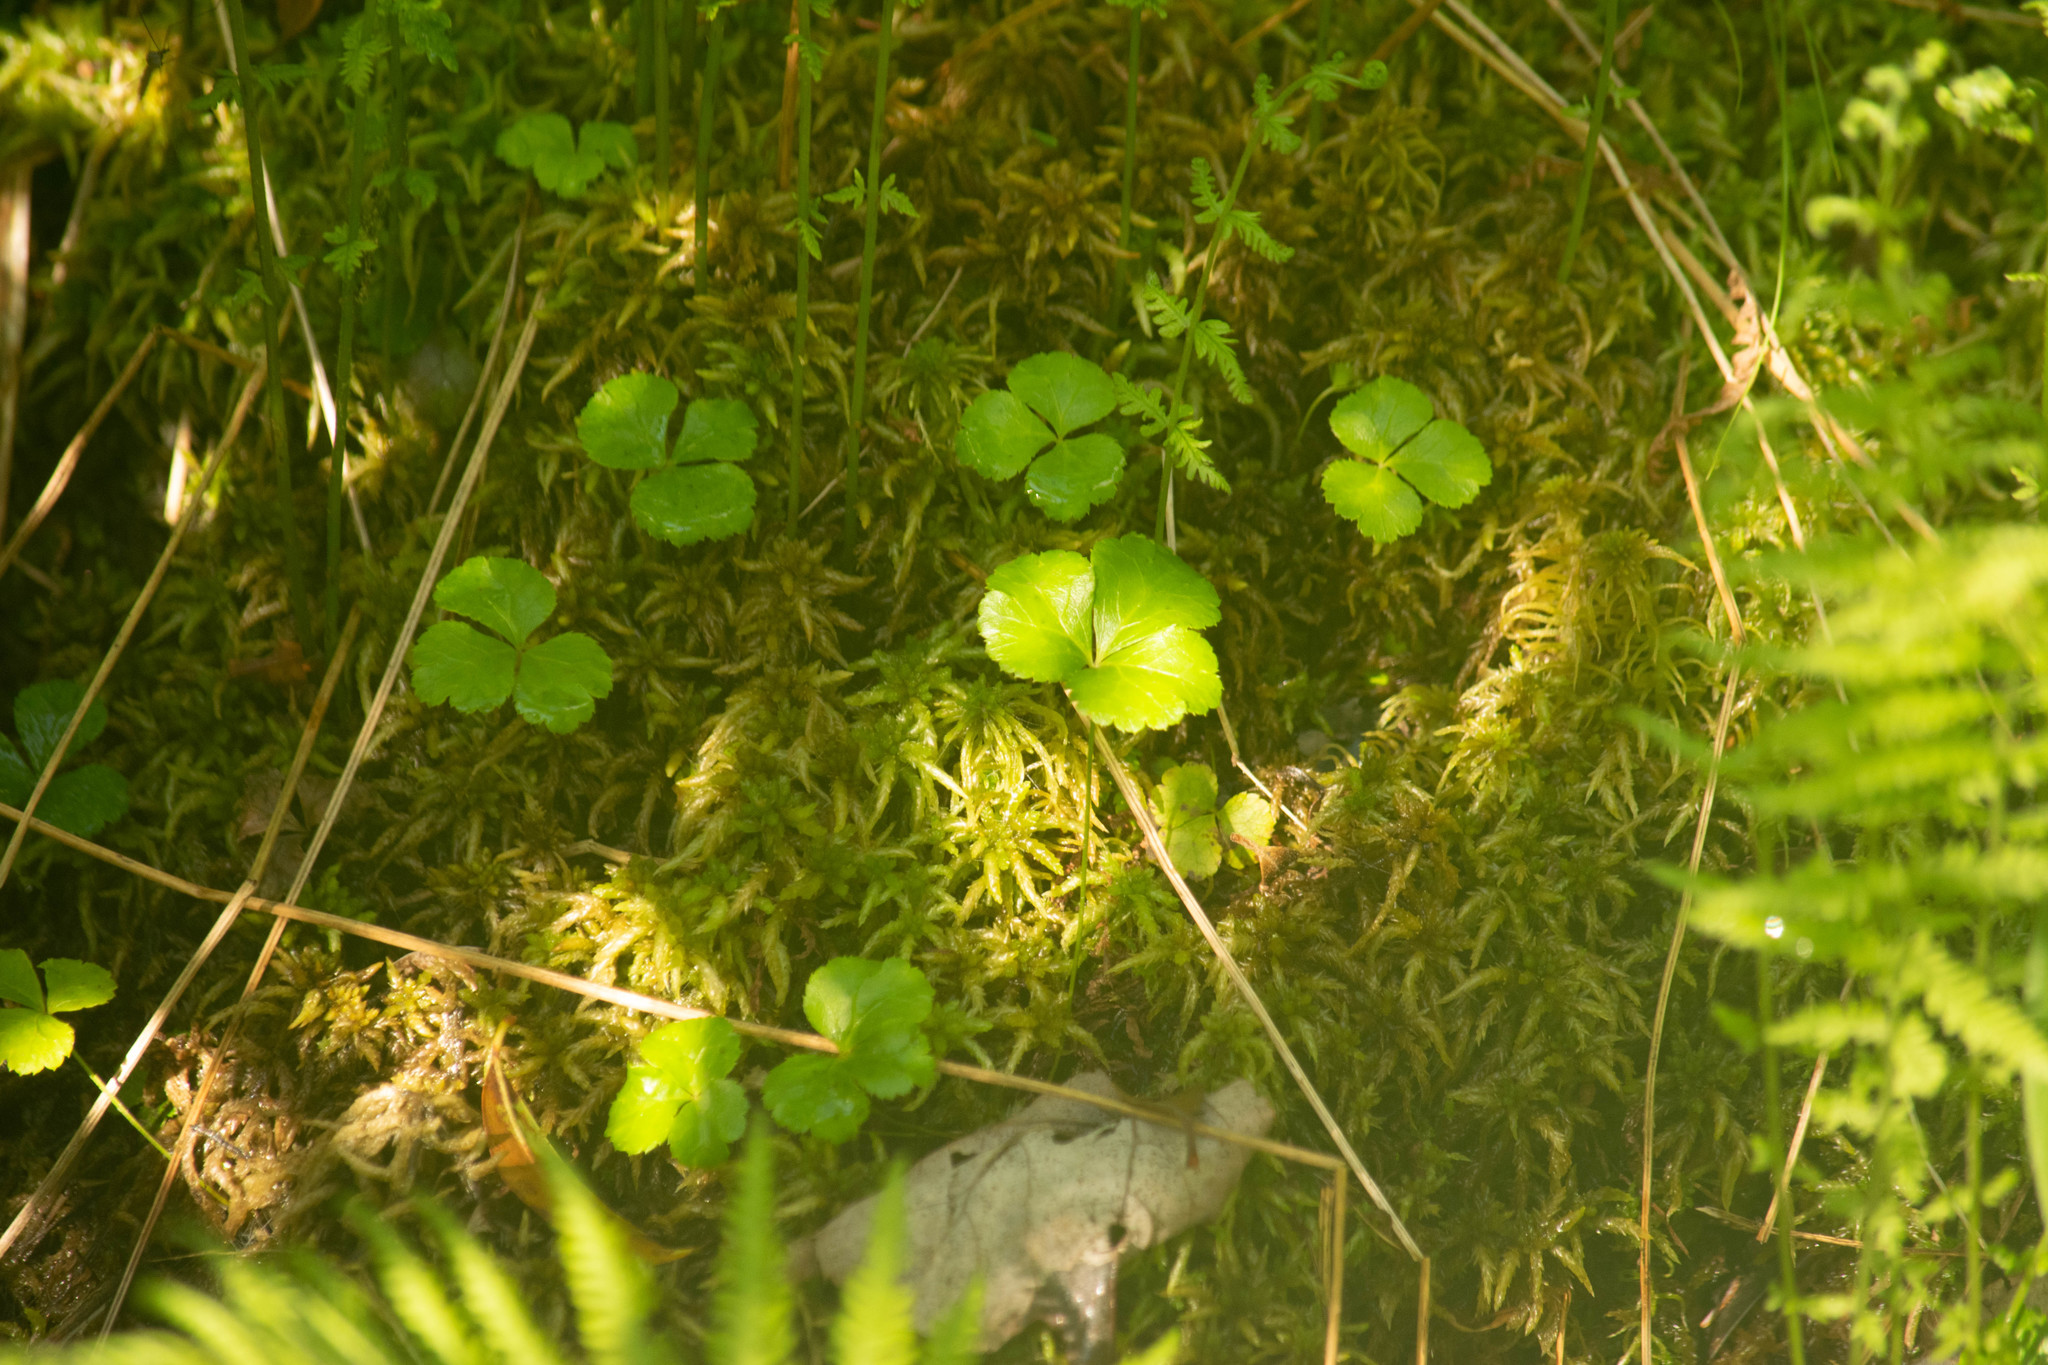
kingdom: Plantae
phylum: Tracheophyta
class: Magnoliopsida
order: Ranunculales
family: Ranunculaceae
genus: Coptis
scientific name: Coptis trifolia
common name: Canker-root
